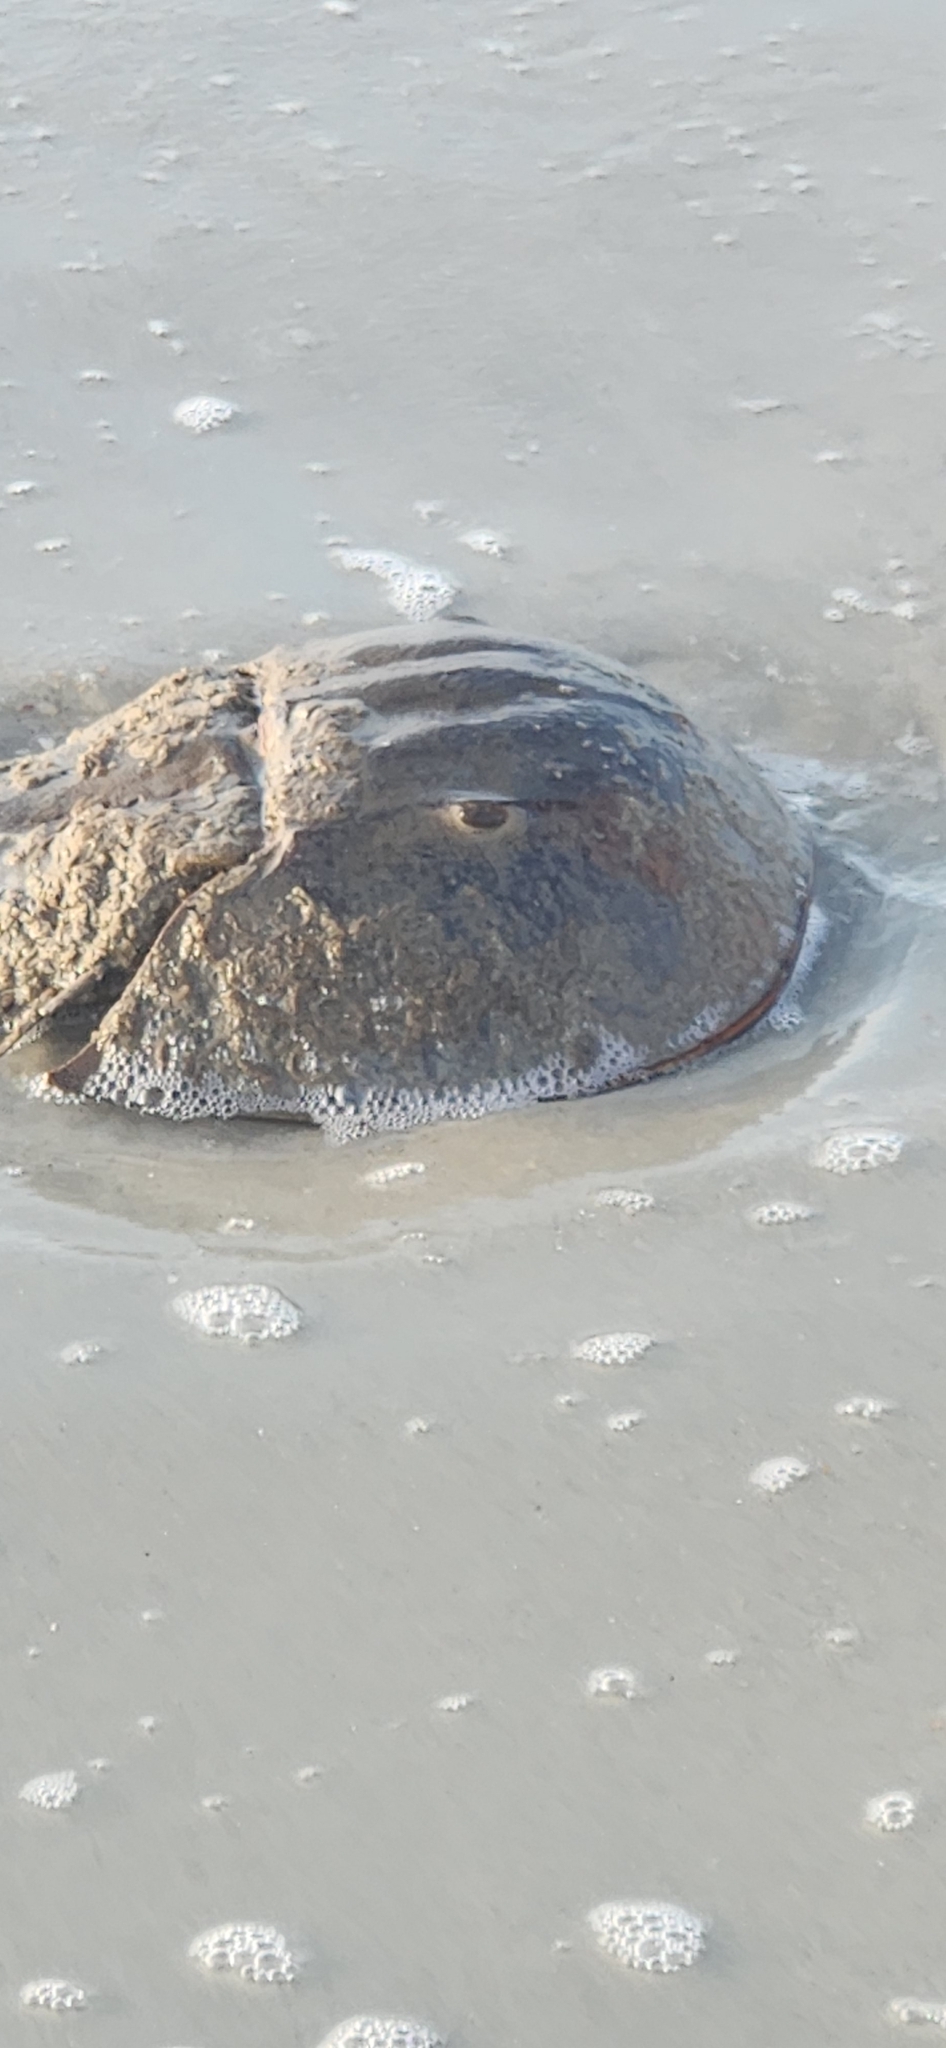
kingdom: Animalia
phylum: Arthropoda
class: Merostomata
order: Xiphosurida
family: Limulidae
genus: Limulus
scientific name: Limulus polyphemus
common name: Horseshoe crab
